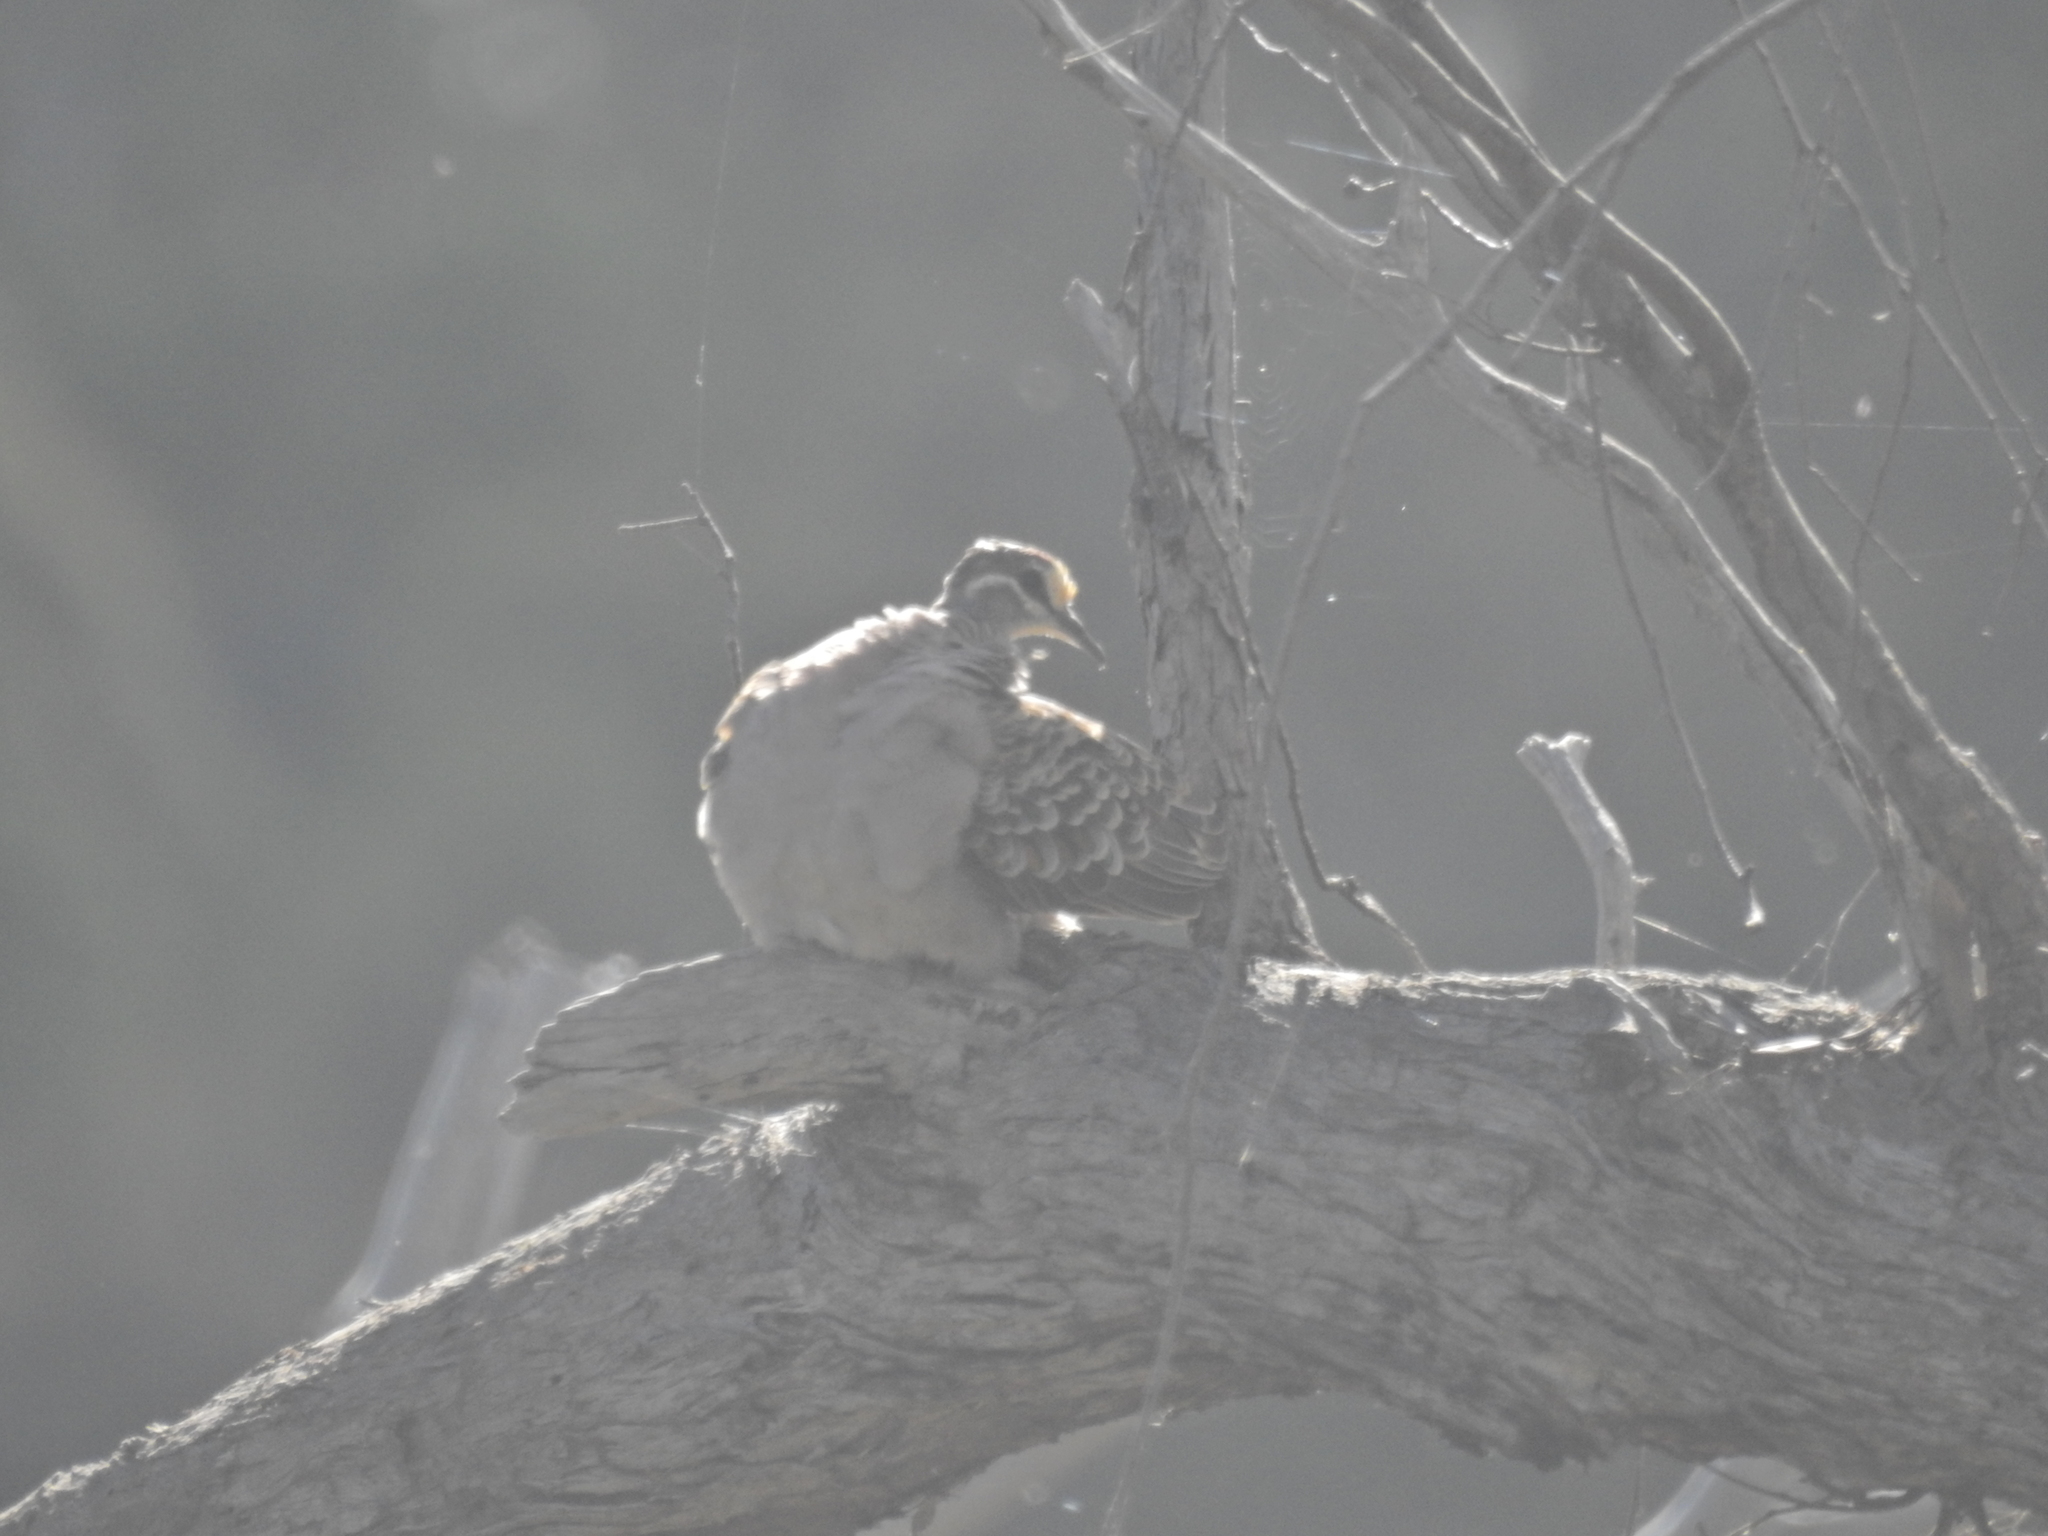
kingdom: Animalia
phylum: Chordata
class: Aves
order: Columbiformes
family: Columbidae
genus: Phaps
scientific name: Phaps chalcoptera
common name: Common bronzewing
